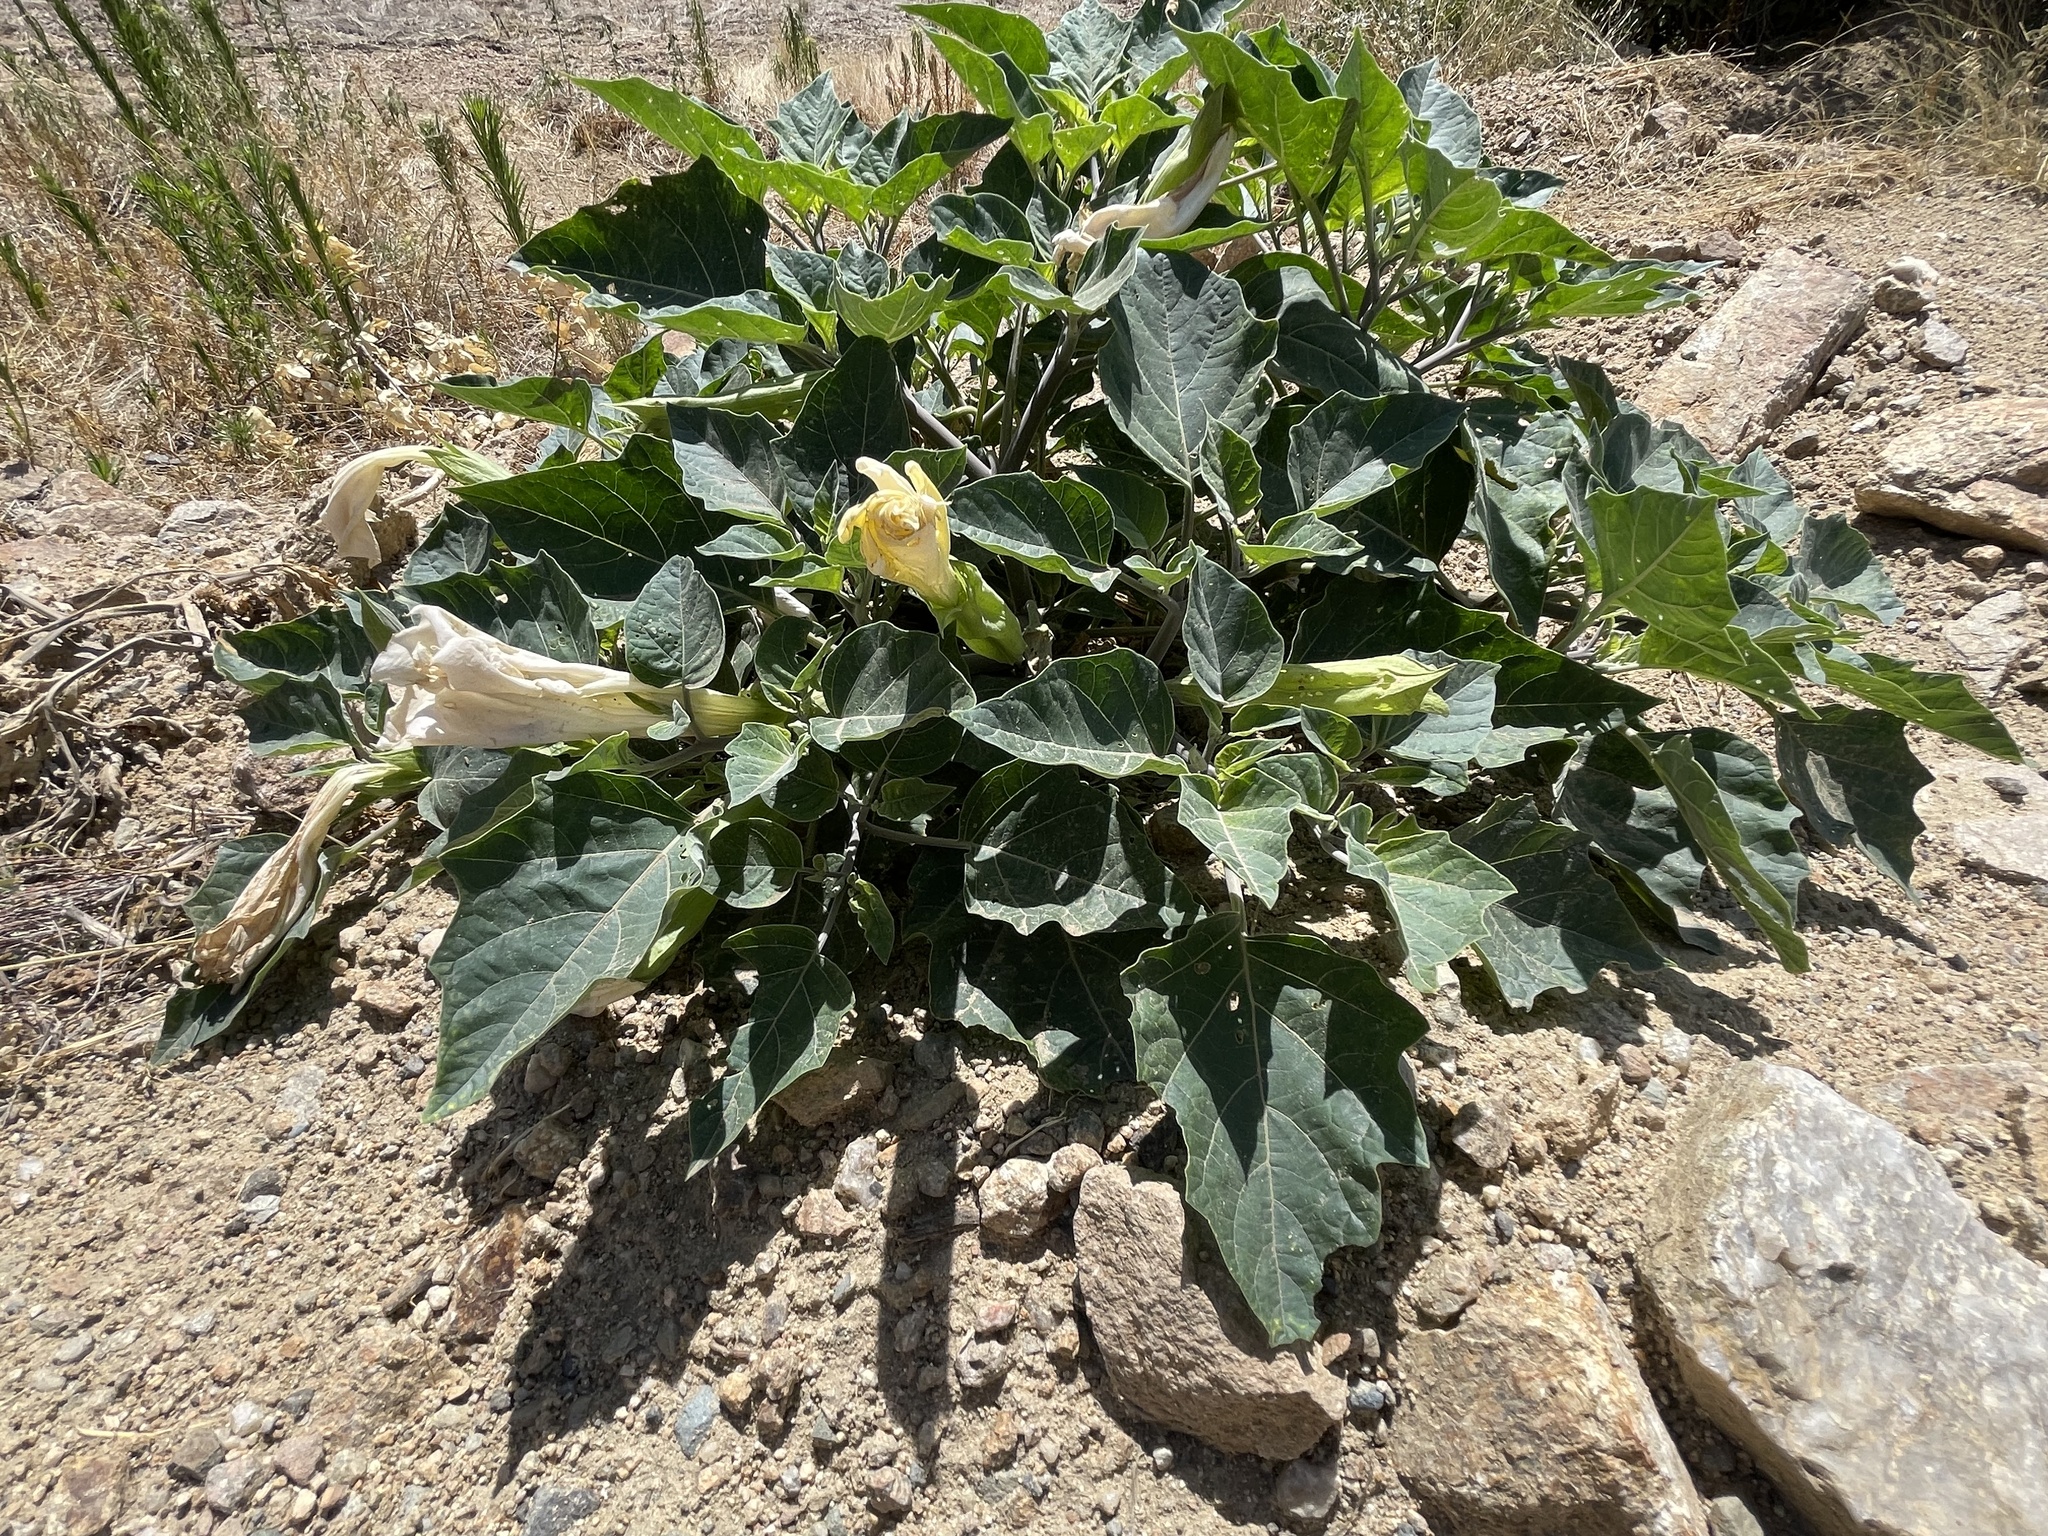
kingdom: Plantae
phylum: Tracheophyta
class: Magnoliopsida
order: Solanales
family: Solanaceae
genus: Datura
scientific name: Datura wrightii
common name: Sacred thorn-apple
